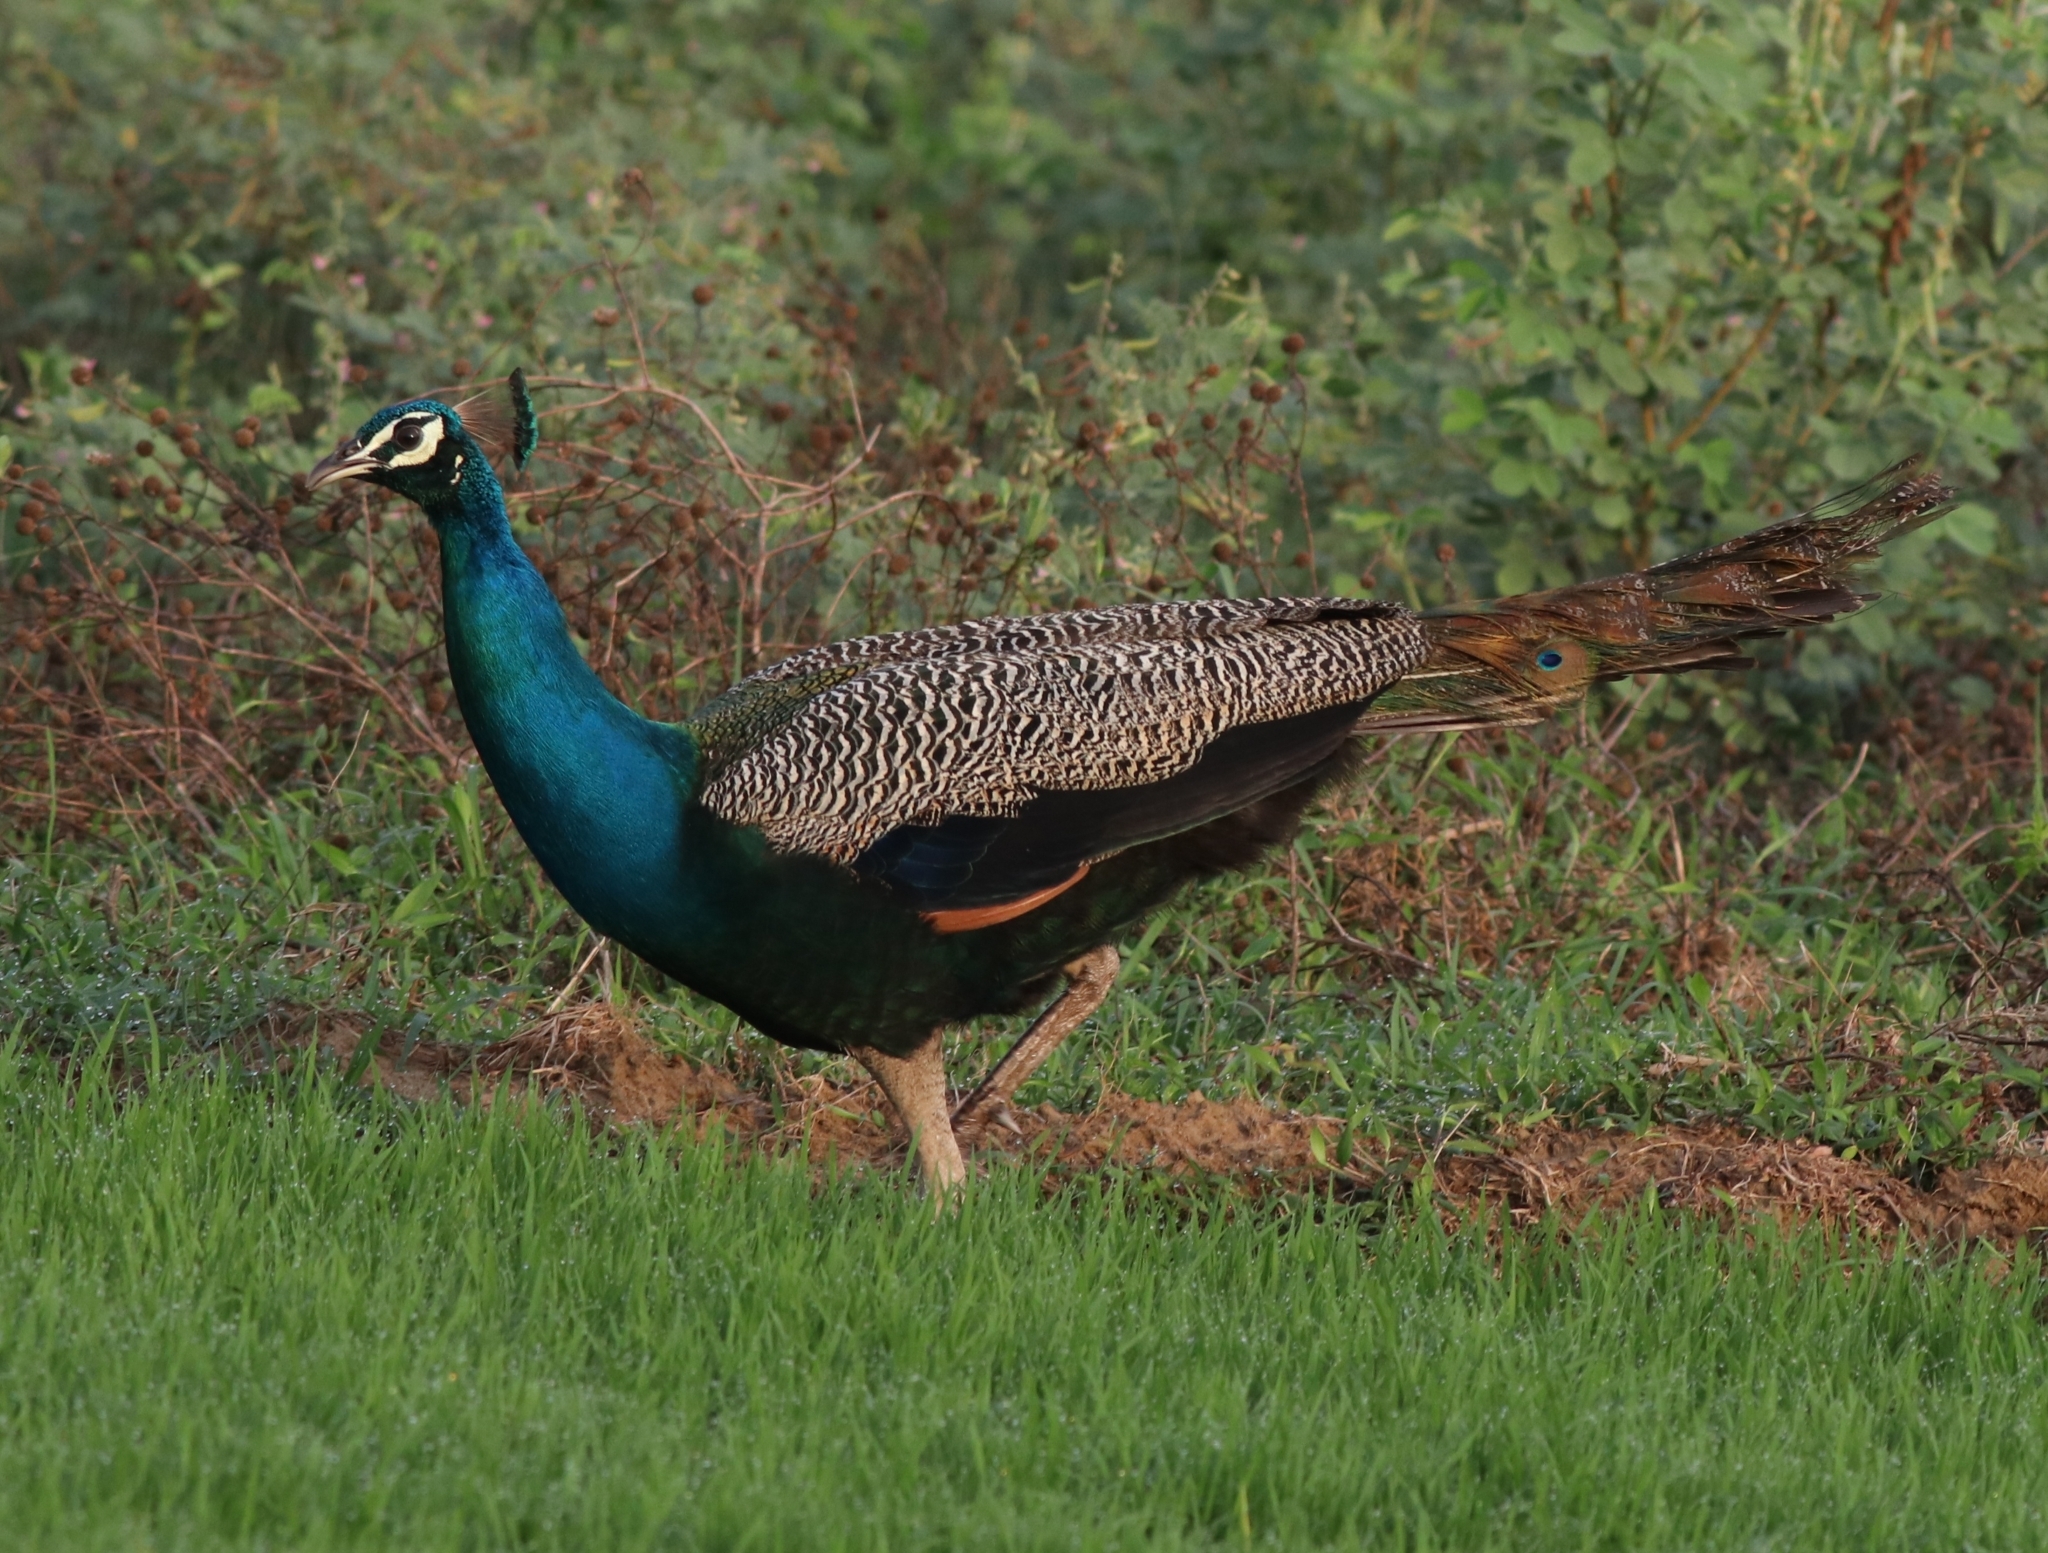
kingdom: Animalia
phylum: Chordata
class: Aves
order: Galliformes
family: Phasianidae
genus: Pavo
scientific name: Pavo cristatus
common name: Indian peafowl
